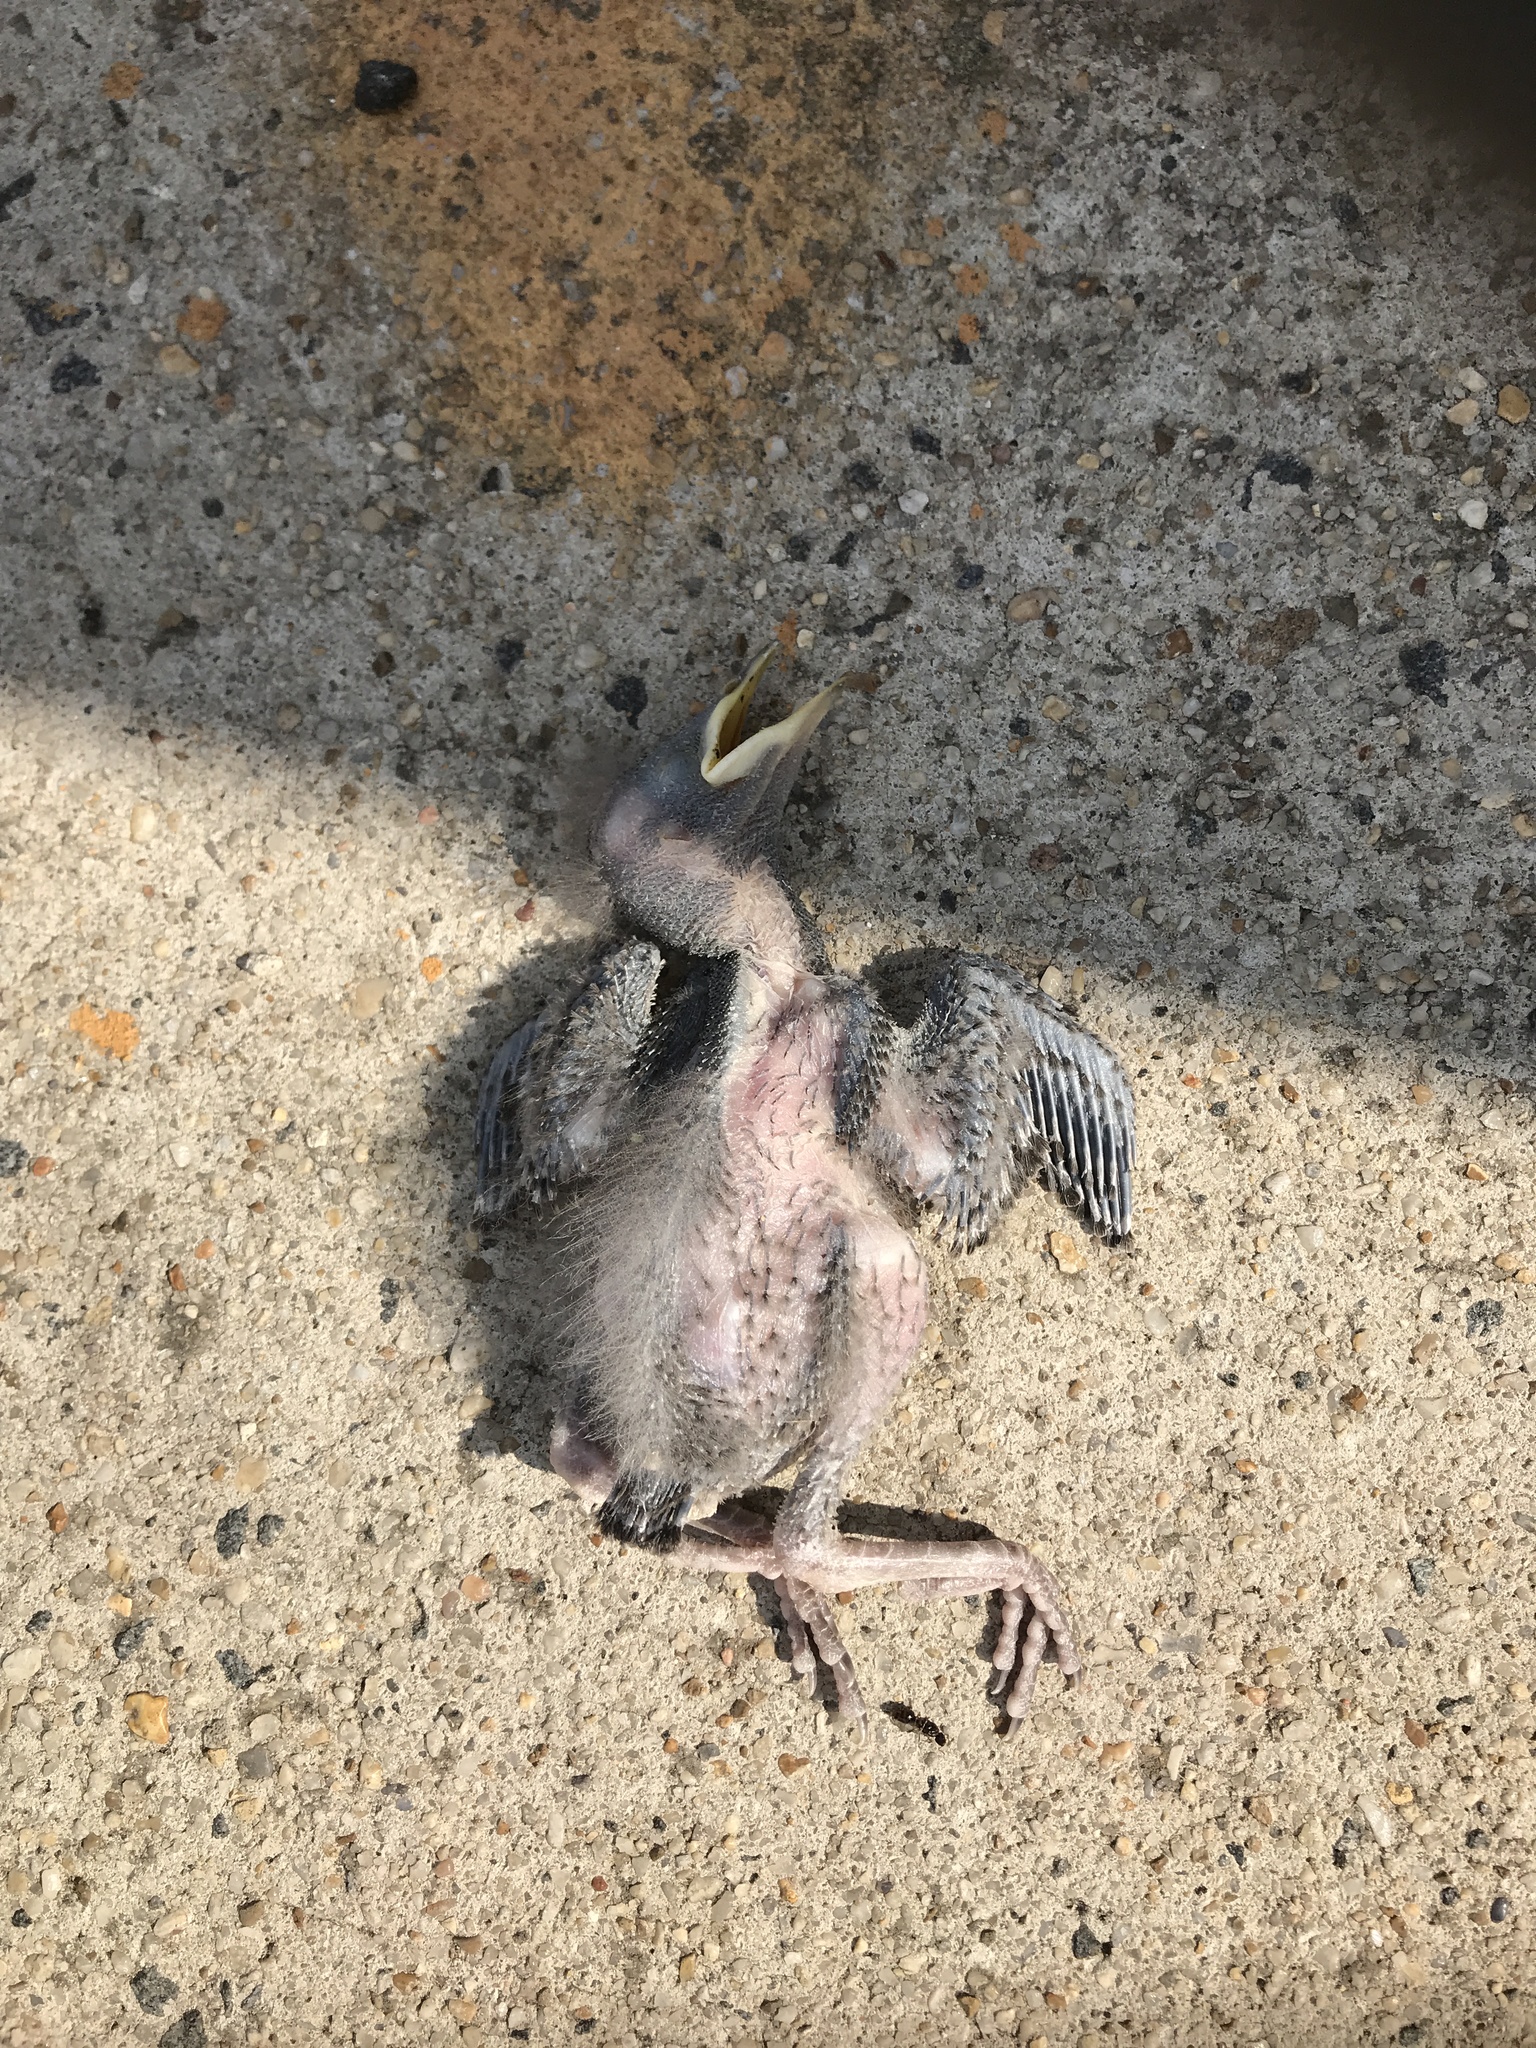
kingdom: Animalia
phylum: Chordata
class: Aves
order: Passeriformes
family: Sturnidae
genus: Sturnus
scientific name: Sturnus vulgaris
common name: Common starling
